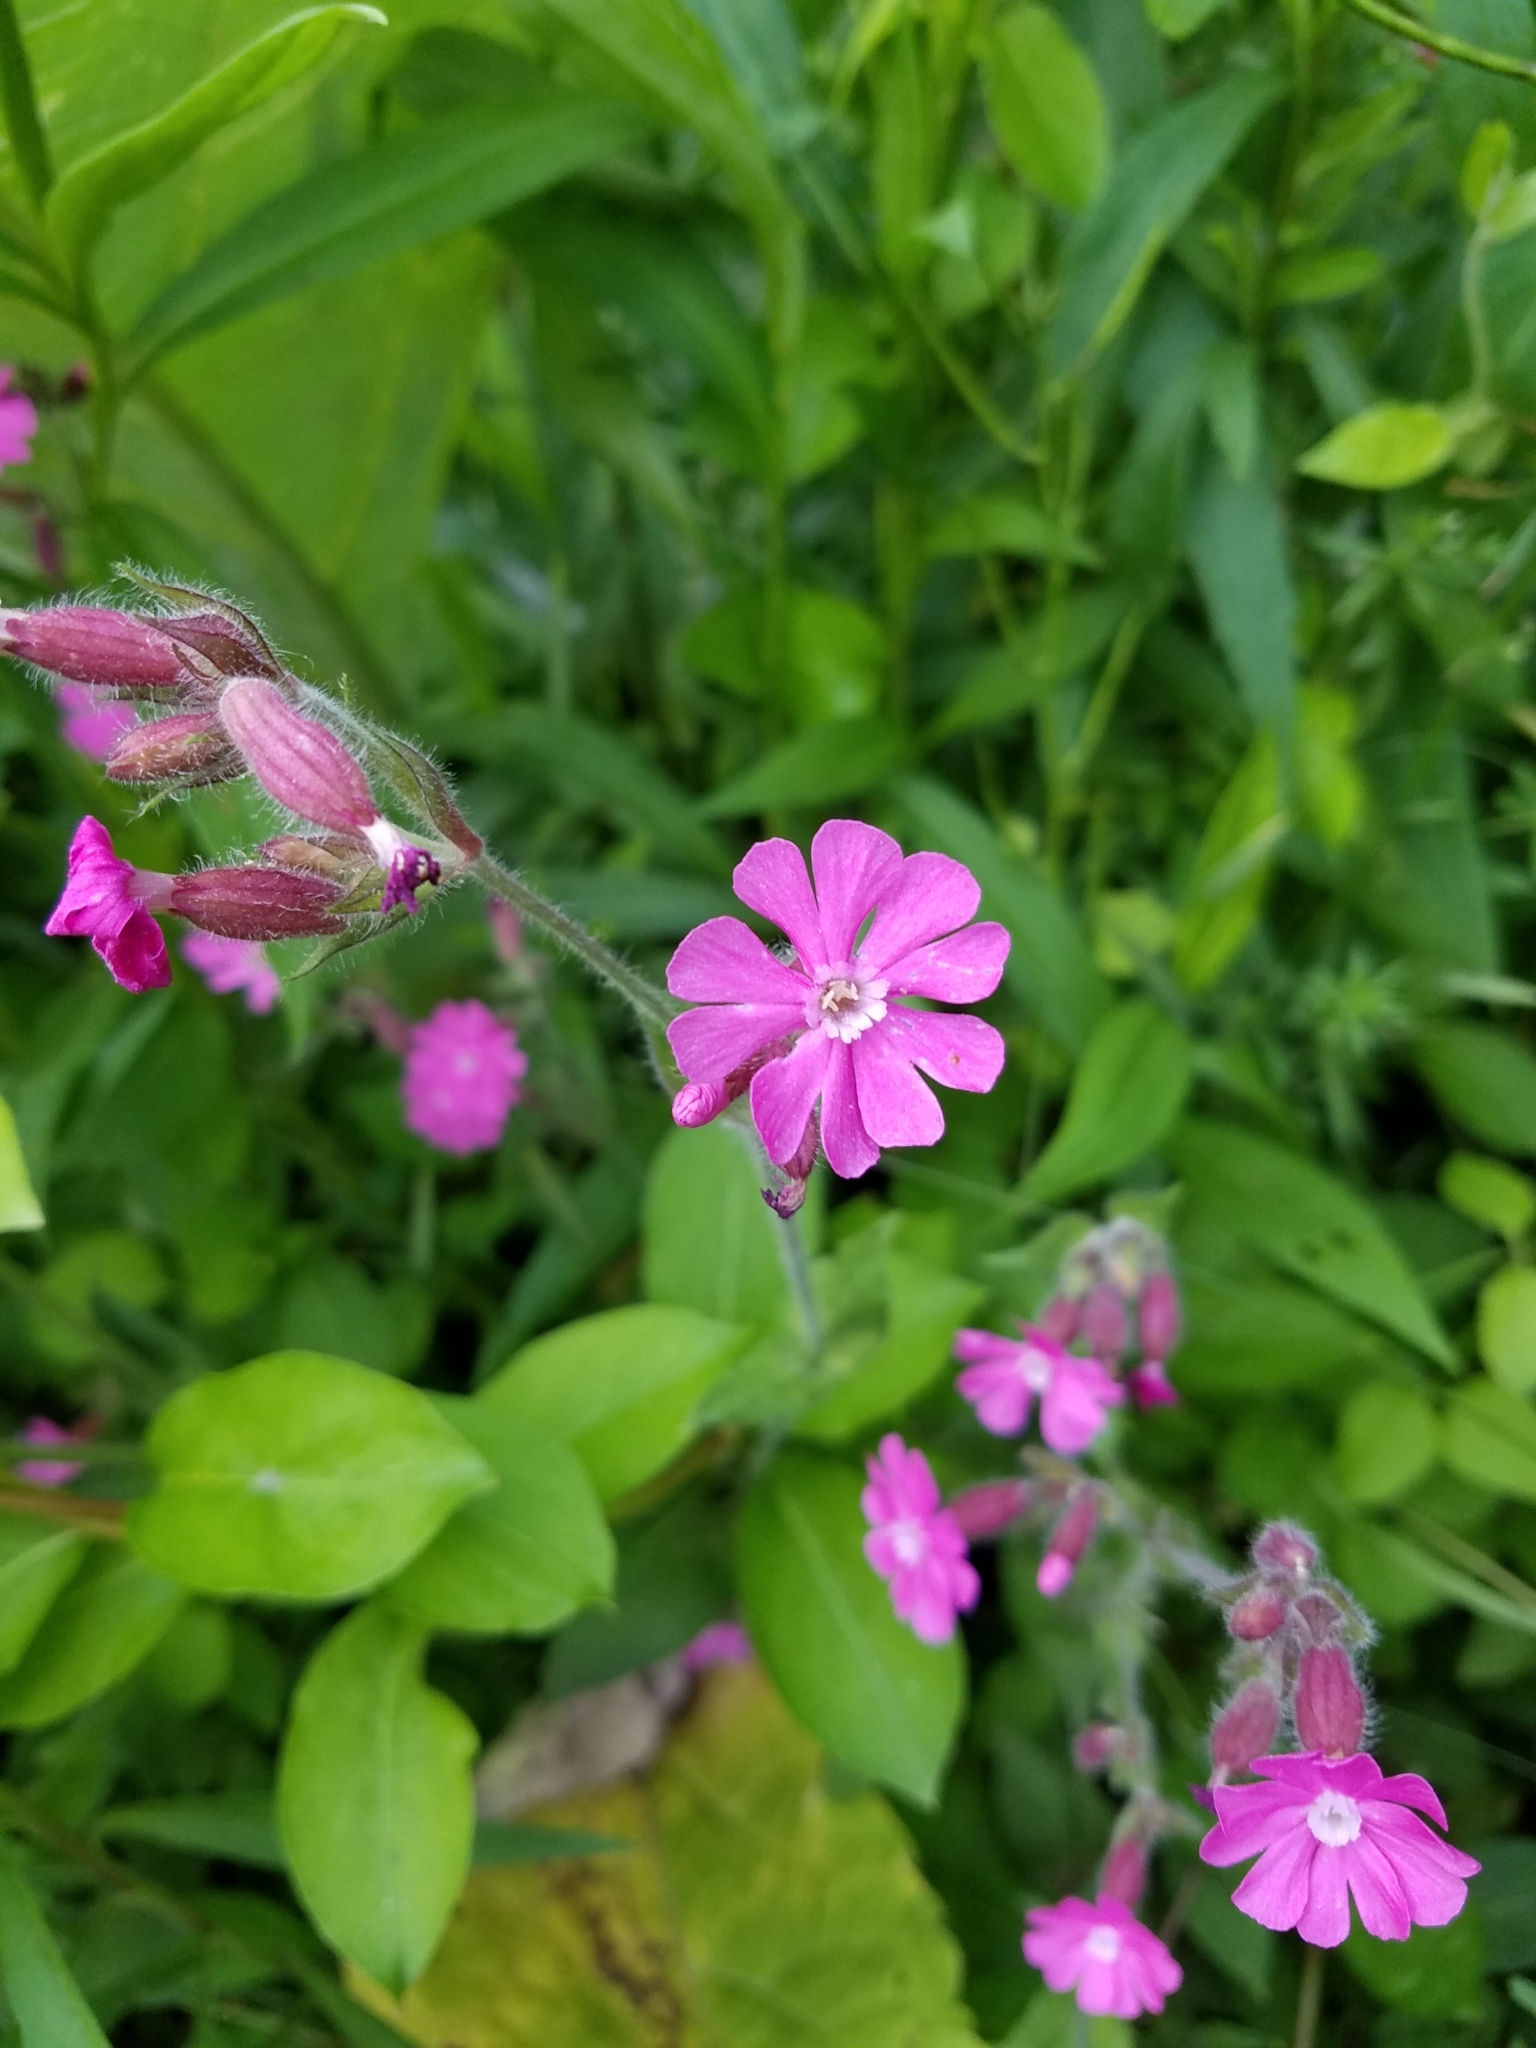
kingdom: Plantae
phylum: Tracheophyta
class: Magnoliopsida
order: Caryophyllales
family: Caryophyllaceae
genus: Silene
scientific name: Silene dioica
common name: Red campion
